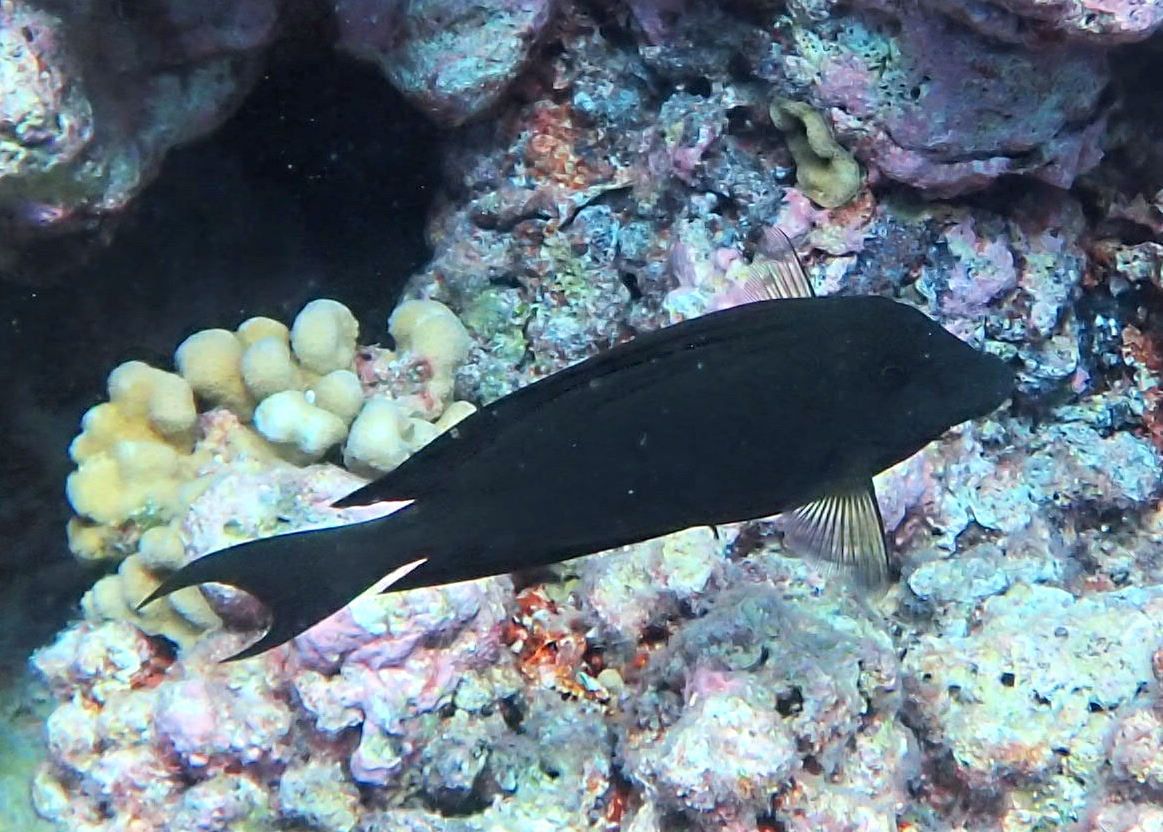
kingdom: Animalia
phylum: Chordata
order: Perciformes
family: Acanthuridae
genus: Ctenochaetus
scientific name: Ctenochaetus striatus
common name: Bristle-toothed surgeonfish
